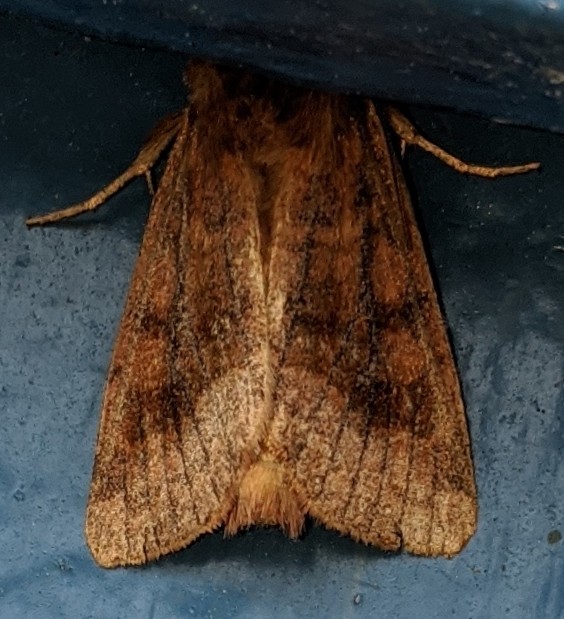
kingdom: Animalia
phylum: Arthropoda
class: Insecta
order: Lepidoptera
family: Noctuidae
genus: Nephelodes
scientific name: Nephelodes minians
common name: Bronzed cutworm
